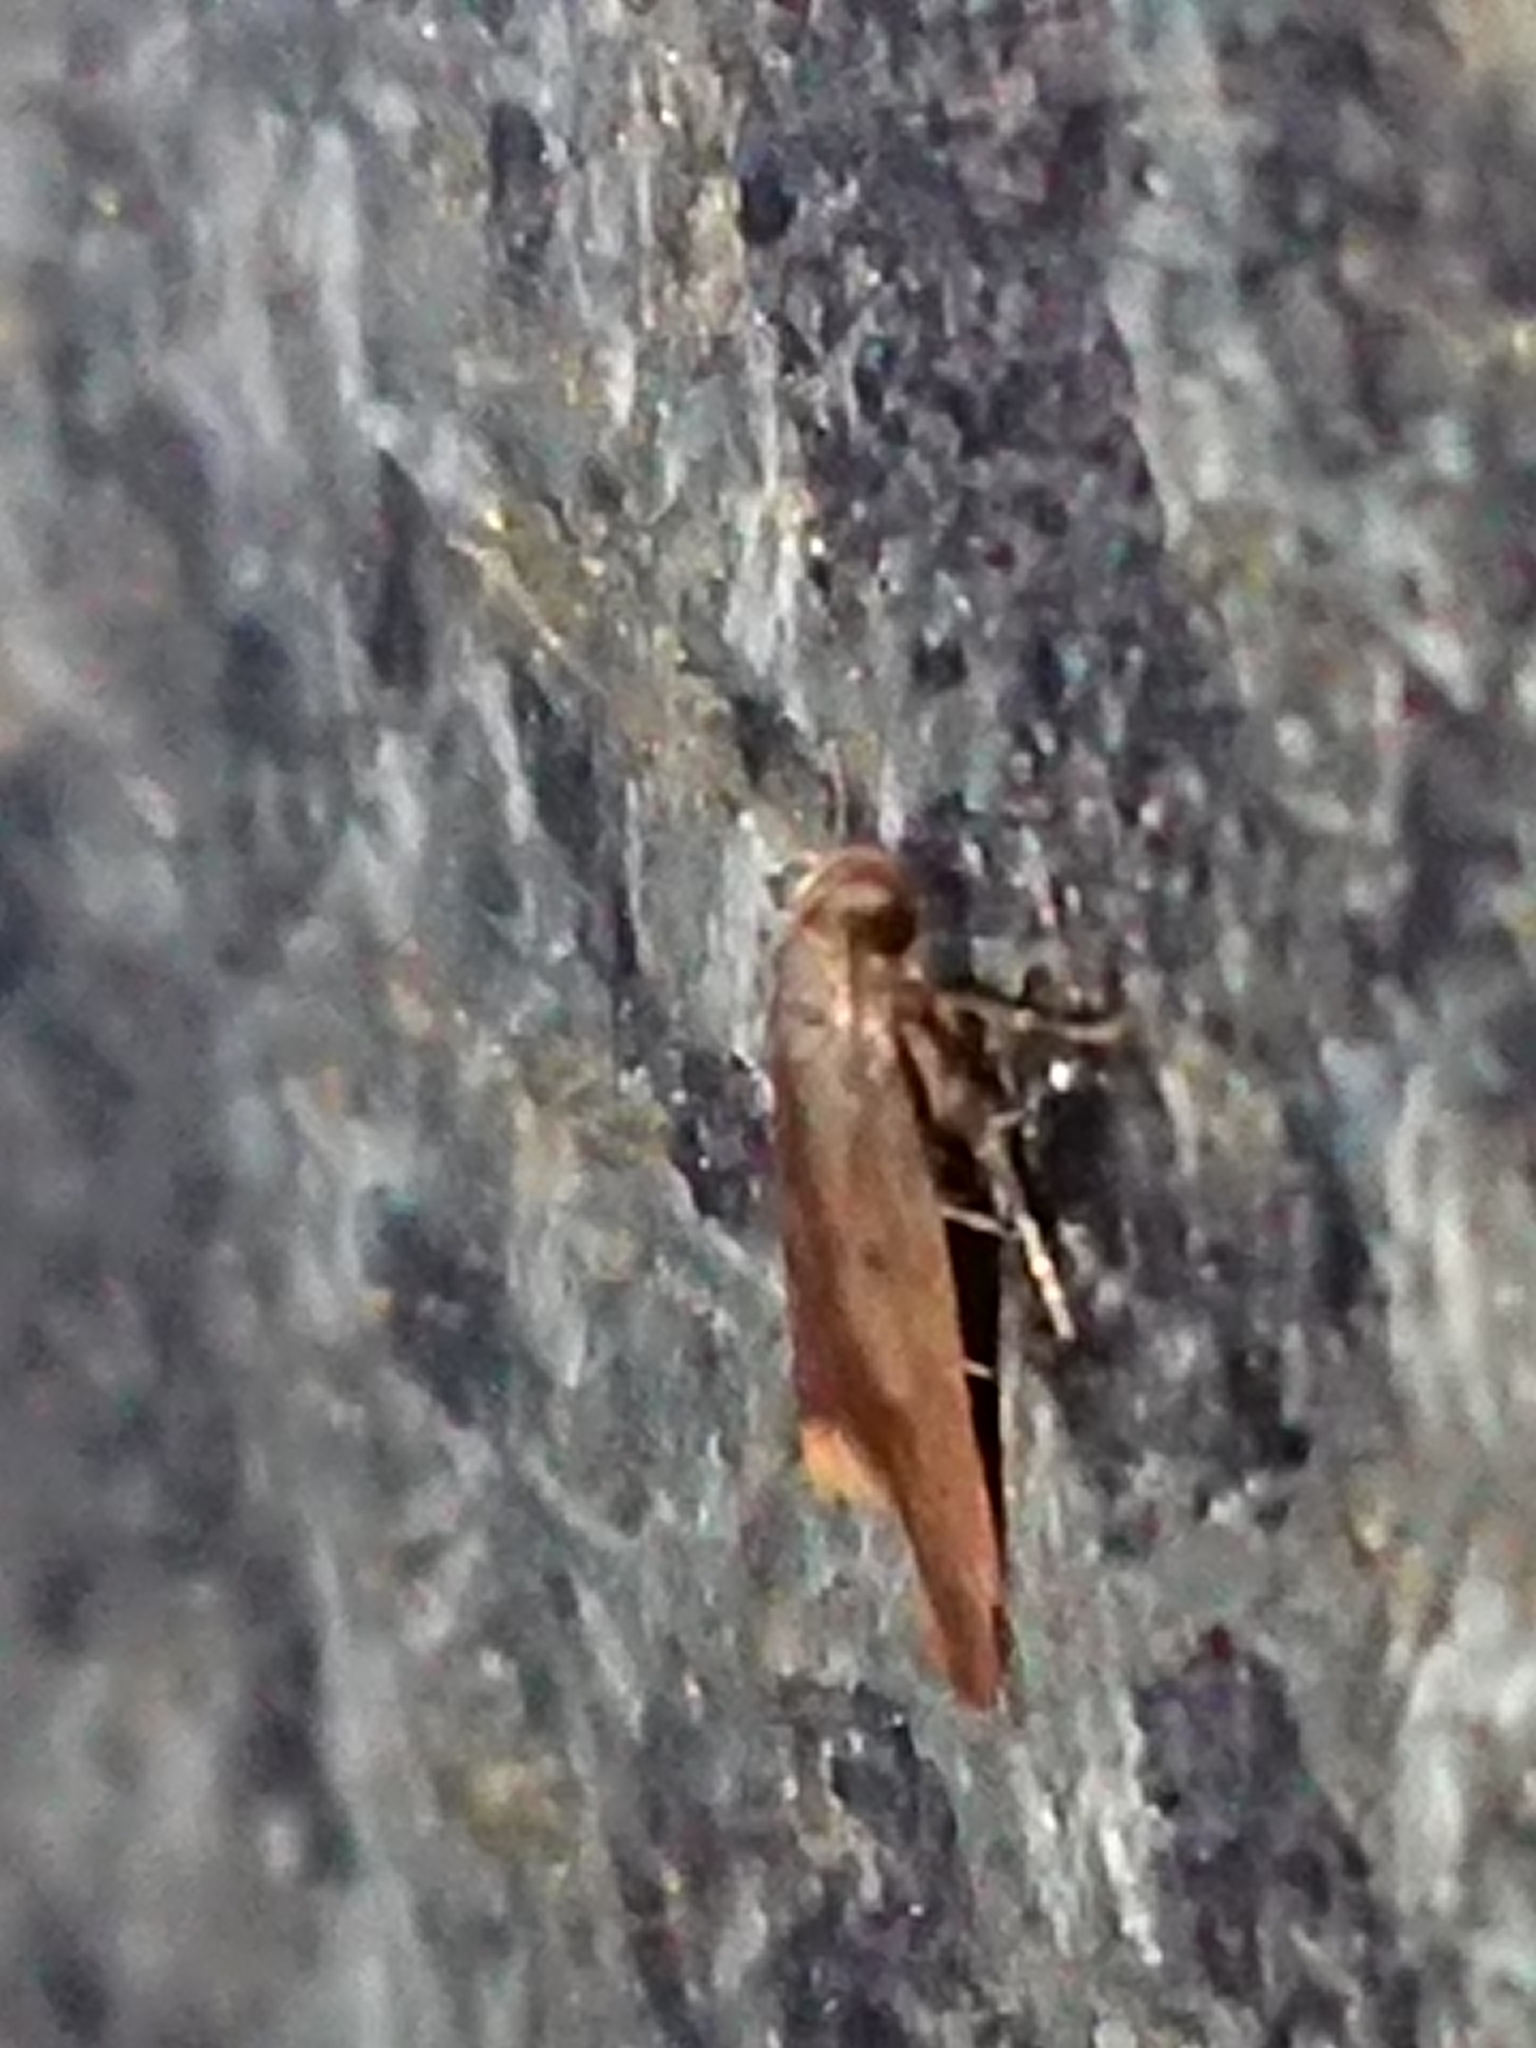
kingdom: Animalia
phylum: Arthropoda
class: Insecta
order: Lepidoptera
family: Oecophoridae
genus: Tachystola
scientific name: Tachystola acroxantha
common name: Ruddy streak
